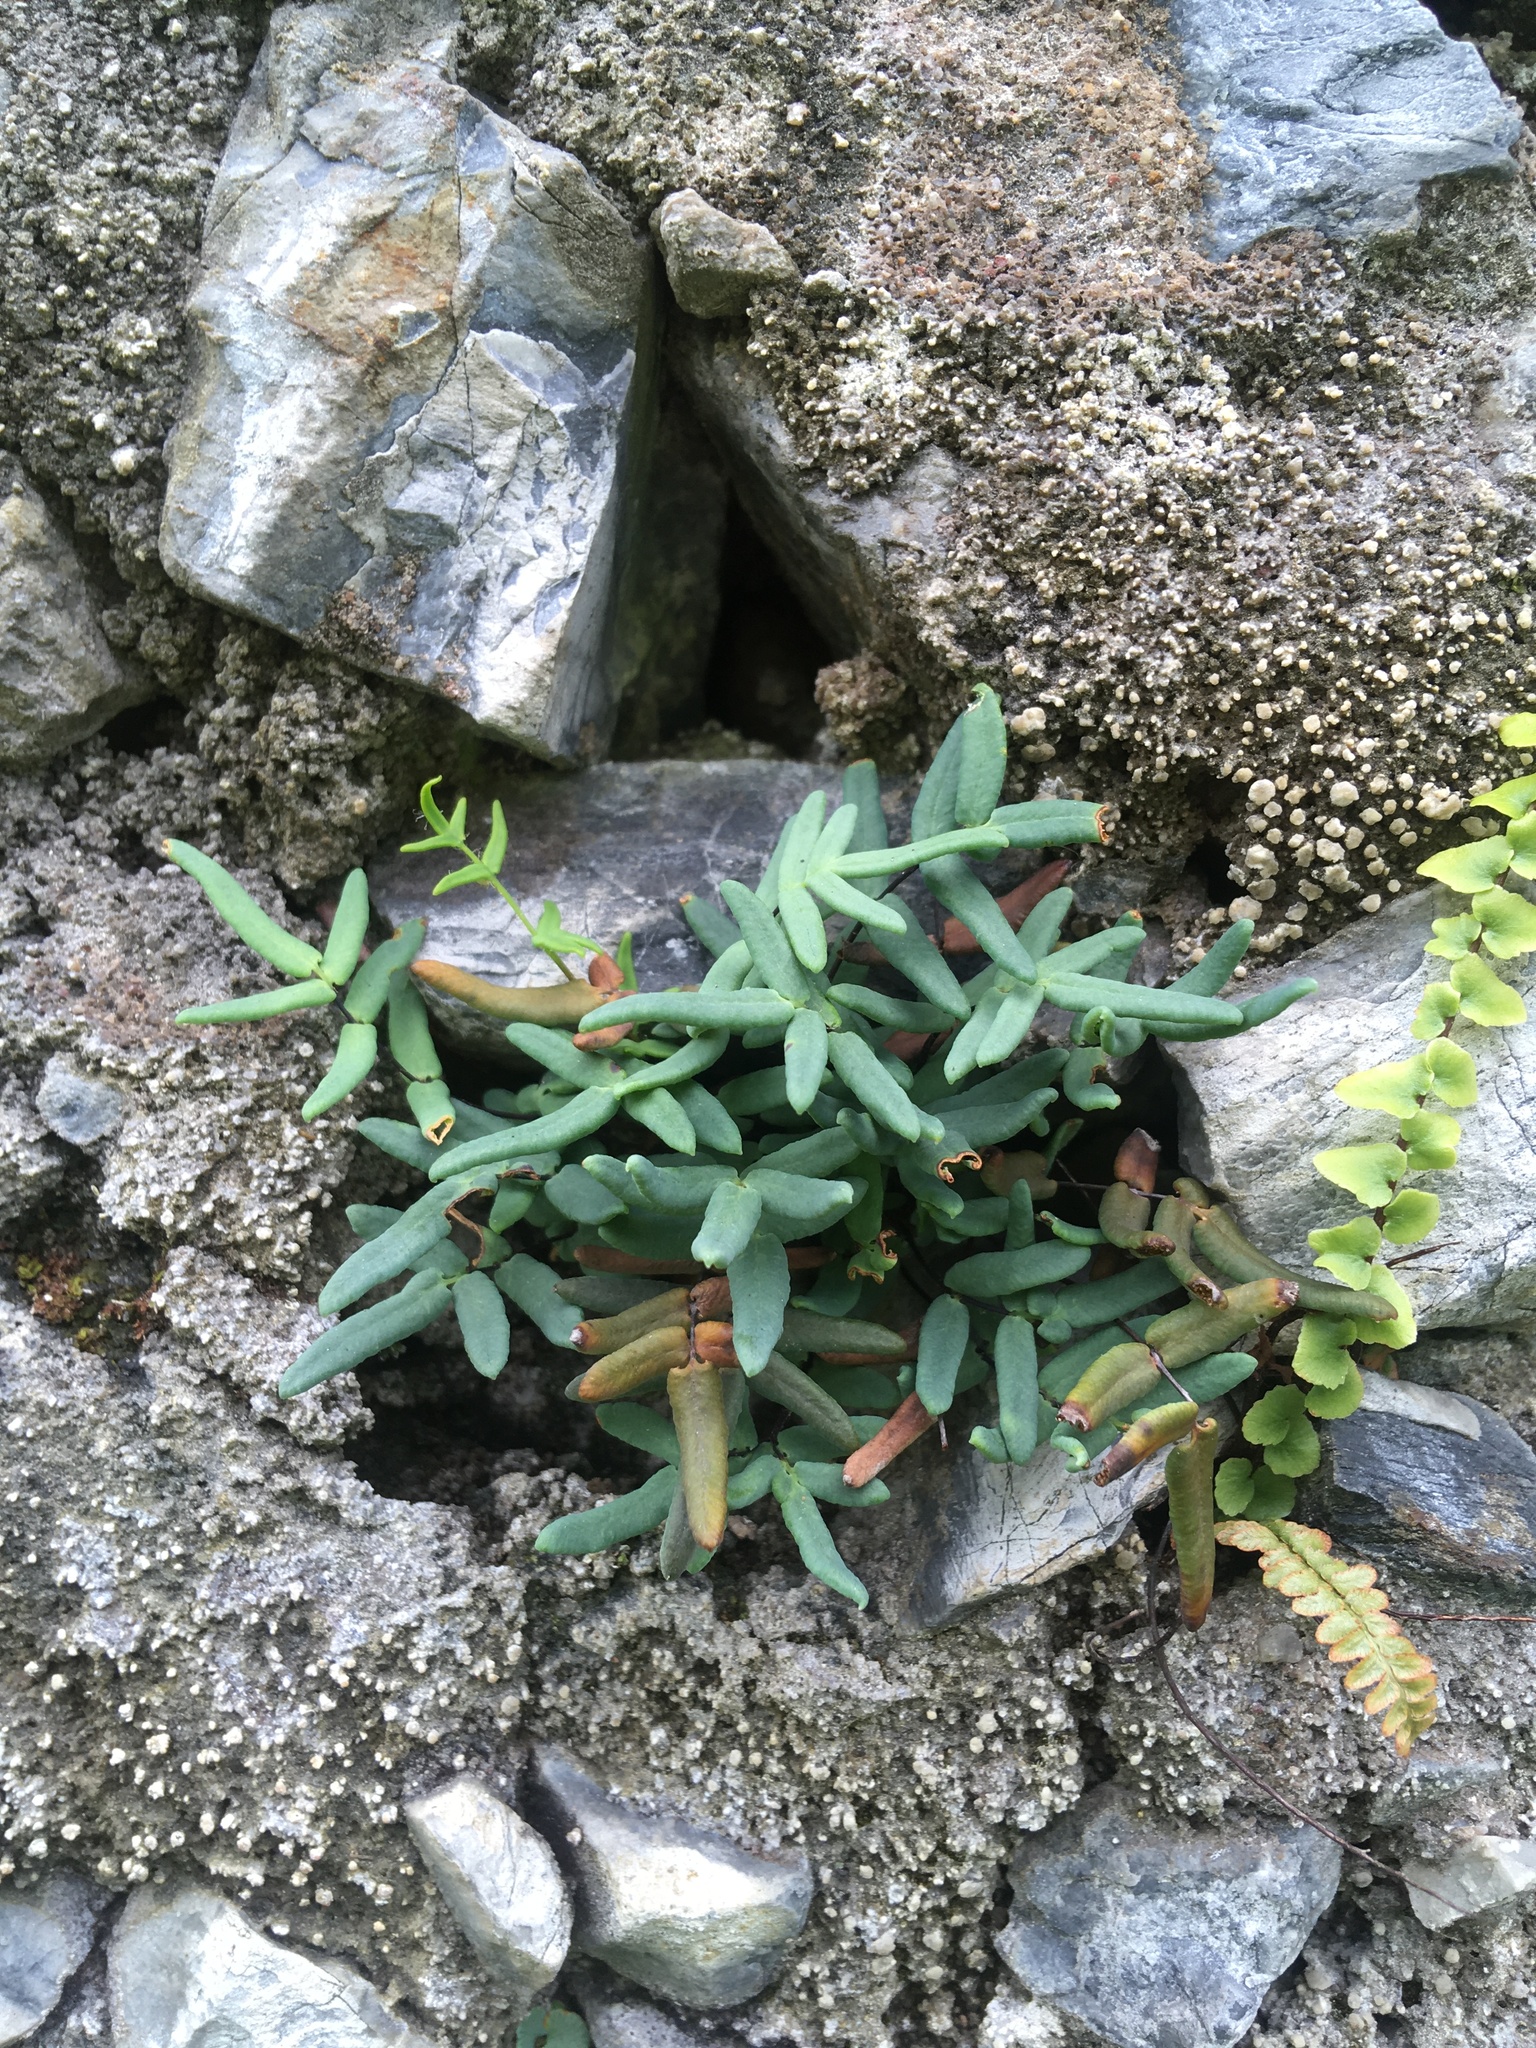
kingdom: Plantae
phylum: Tracheophyta
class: Polypodiopsida
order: Polypodiales
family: Pteridaceae
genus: Pellaea
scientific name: Pellaea glabella
